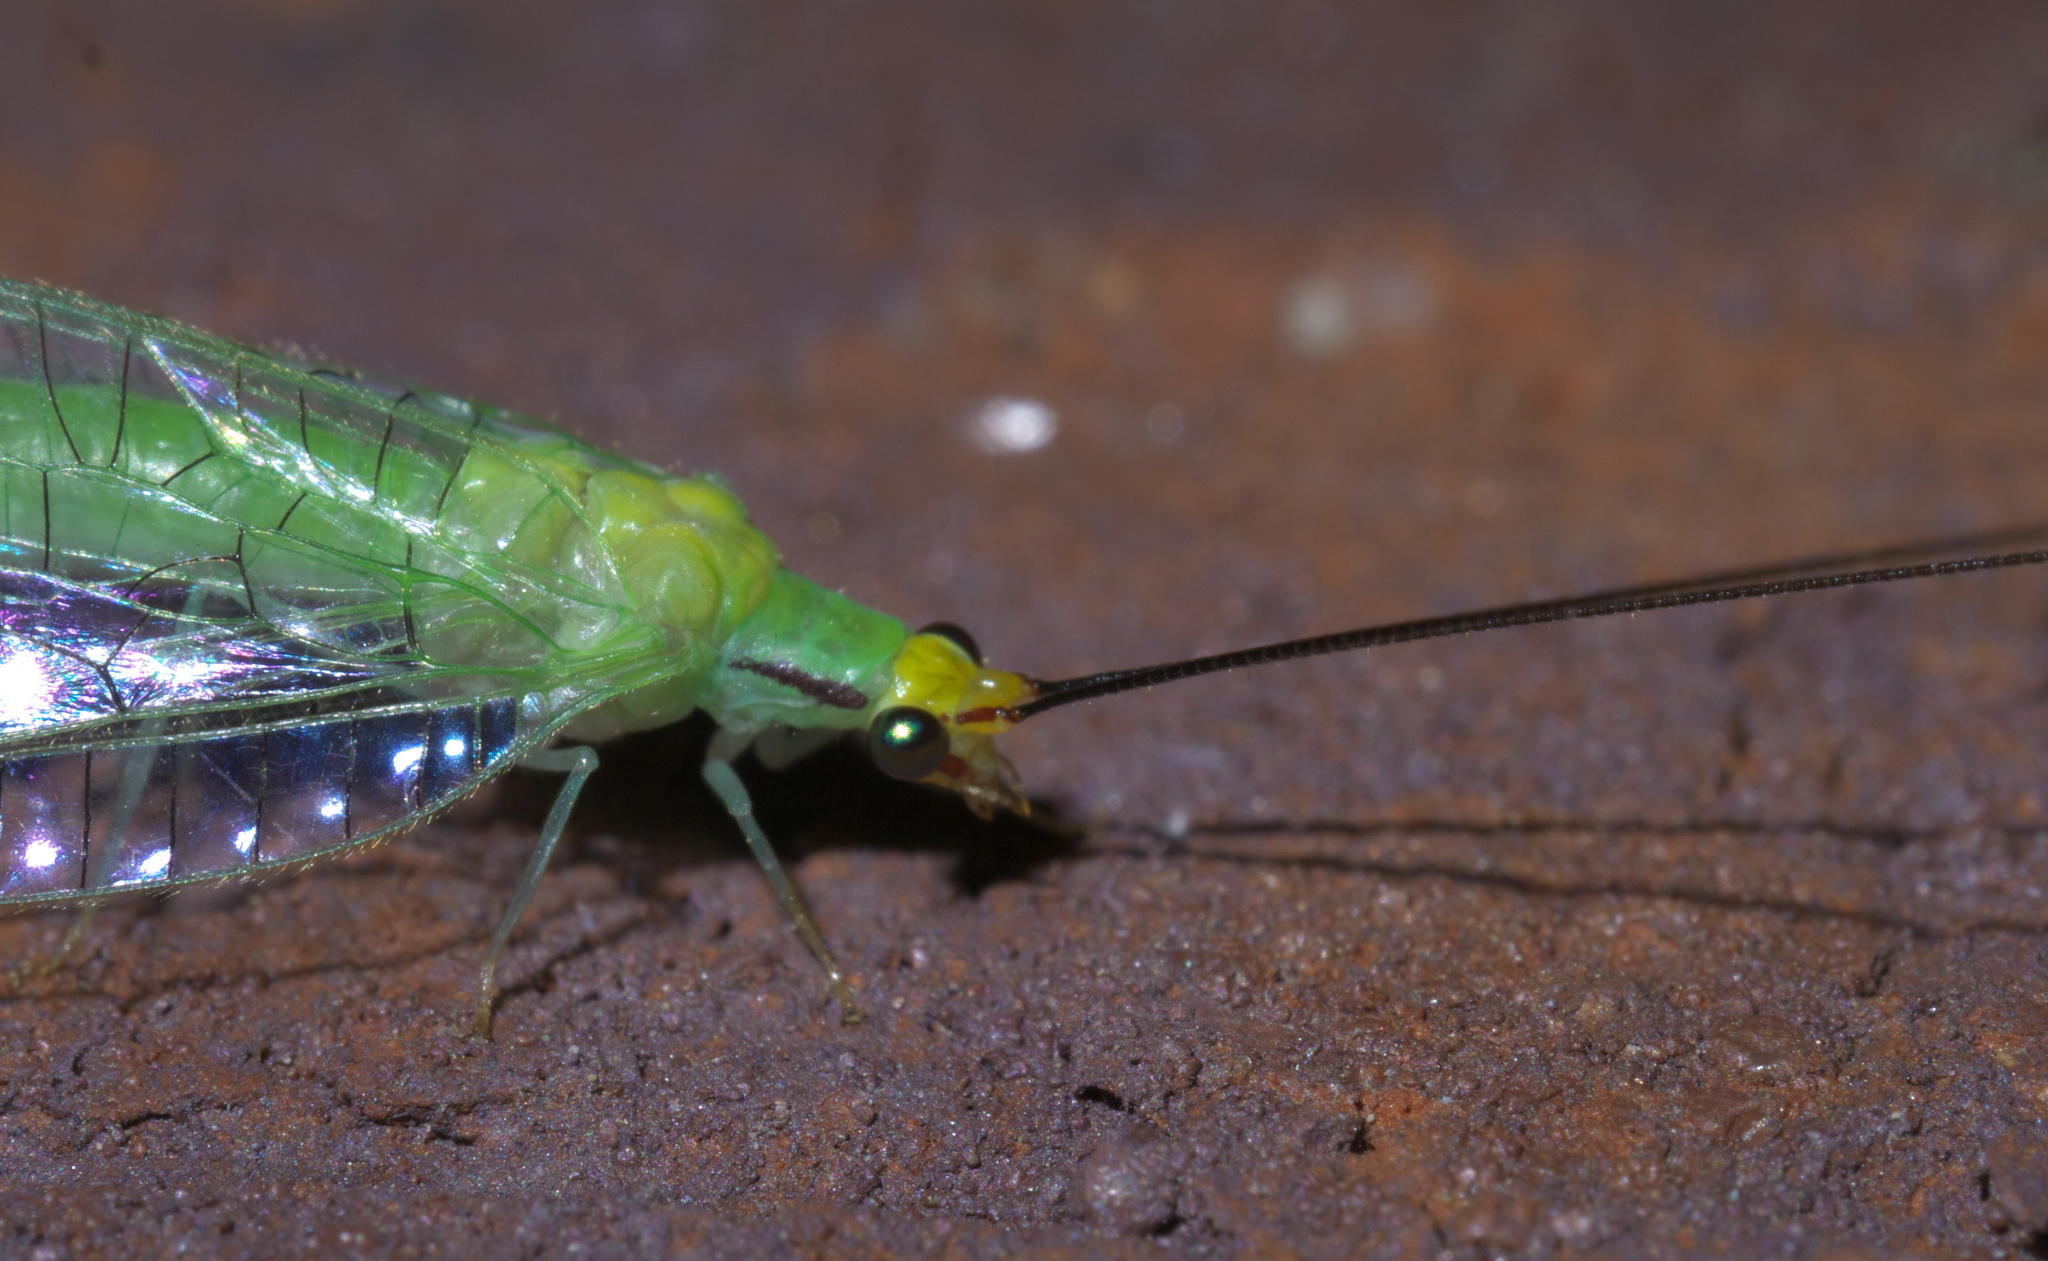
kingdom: Animalia
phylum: Arthropoda
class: Insecta
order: Neuroptera
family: Chrysopidae
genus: Leucochrysa
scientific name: Leucochrysa pavida
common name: Lichen-carrying green lacewing
